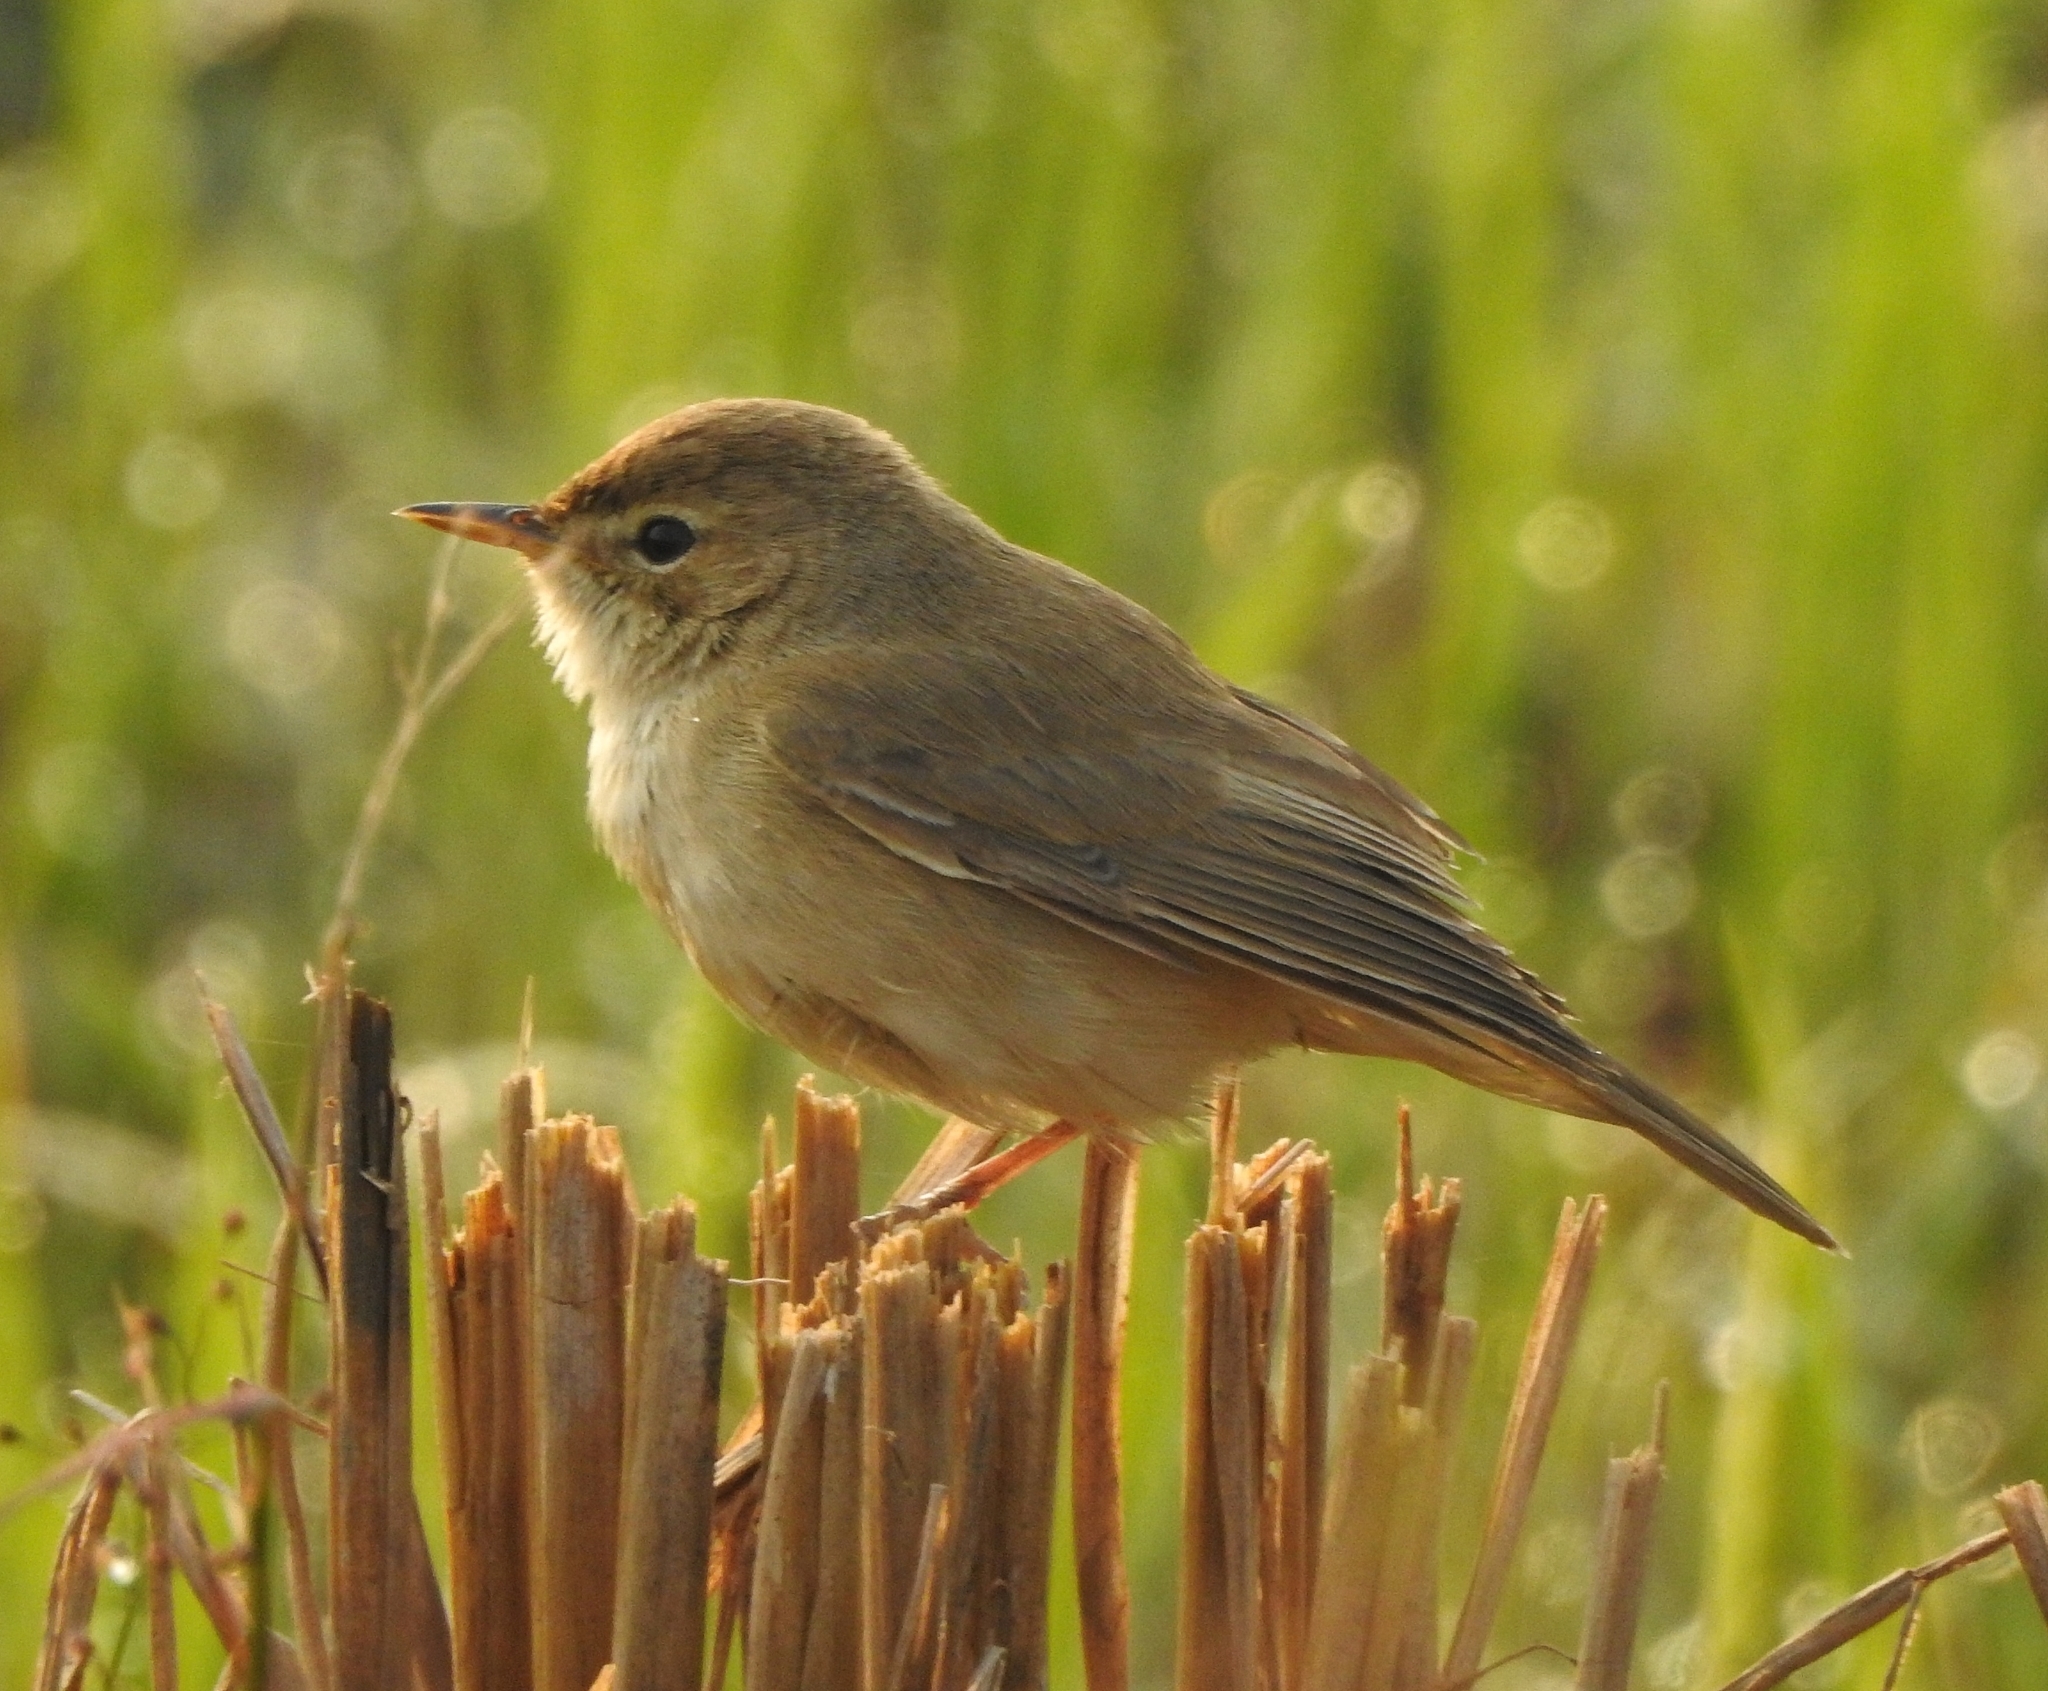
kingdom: Animalia
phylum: Chordata
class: Aves
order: Passeriformes
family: Acrocephalidae
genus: Iduna
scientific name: Iduna caligata
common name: Booted warbler
